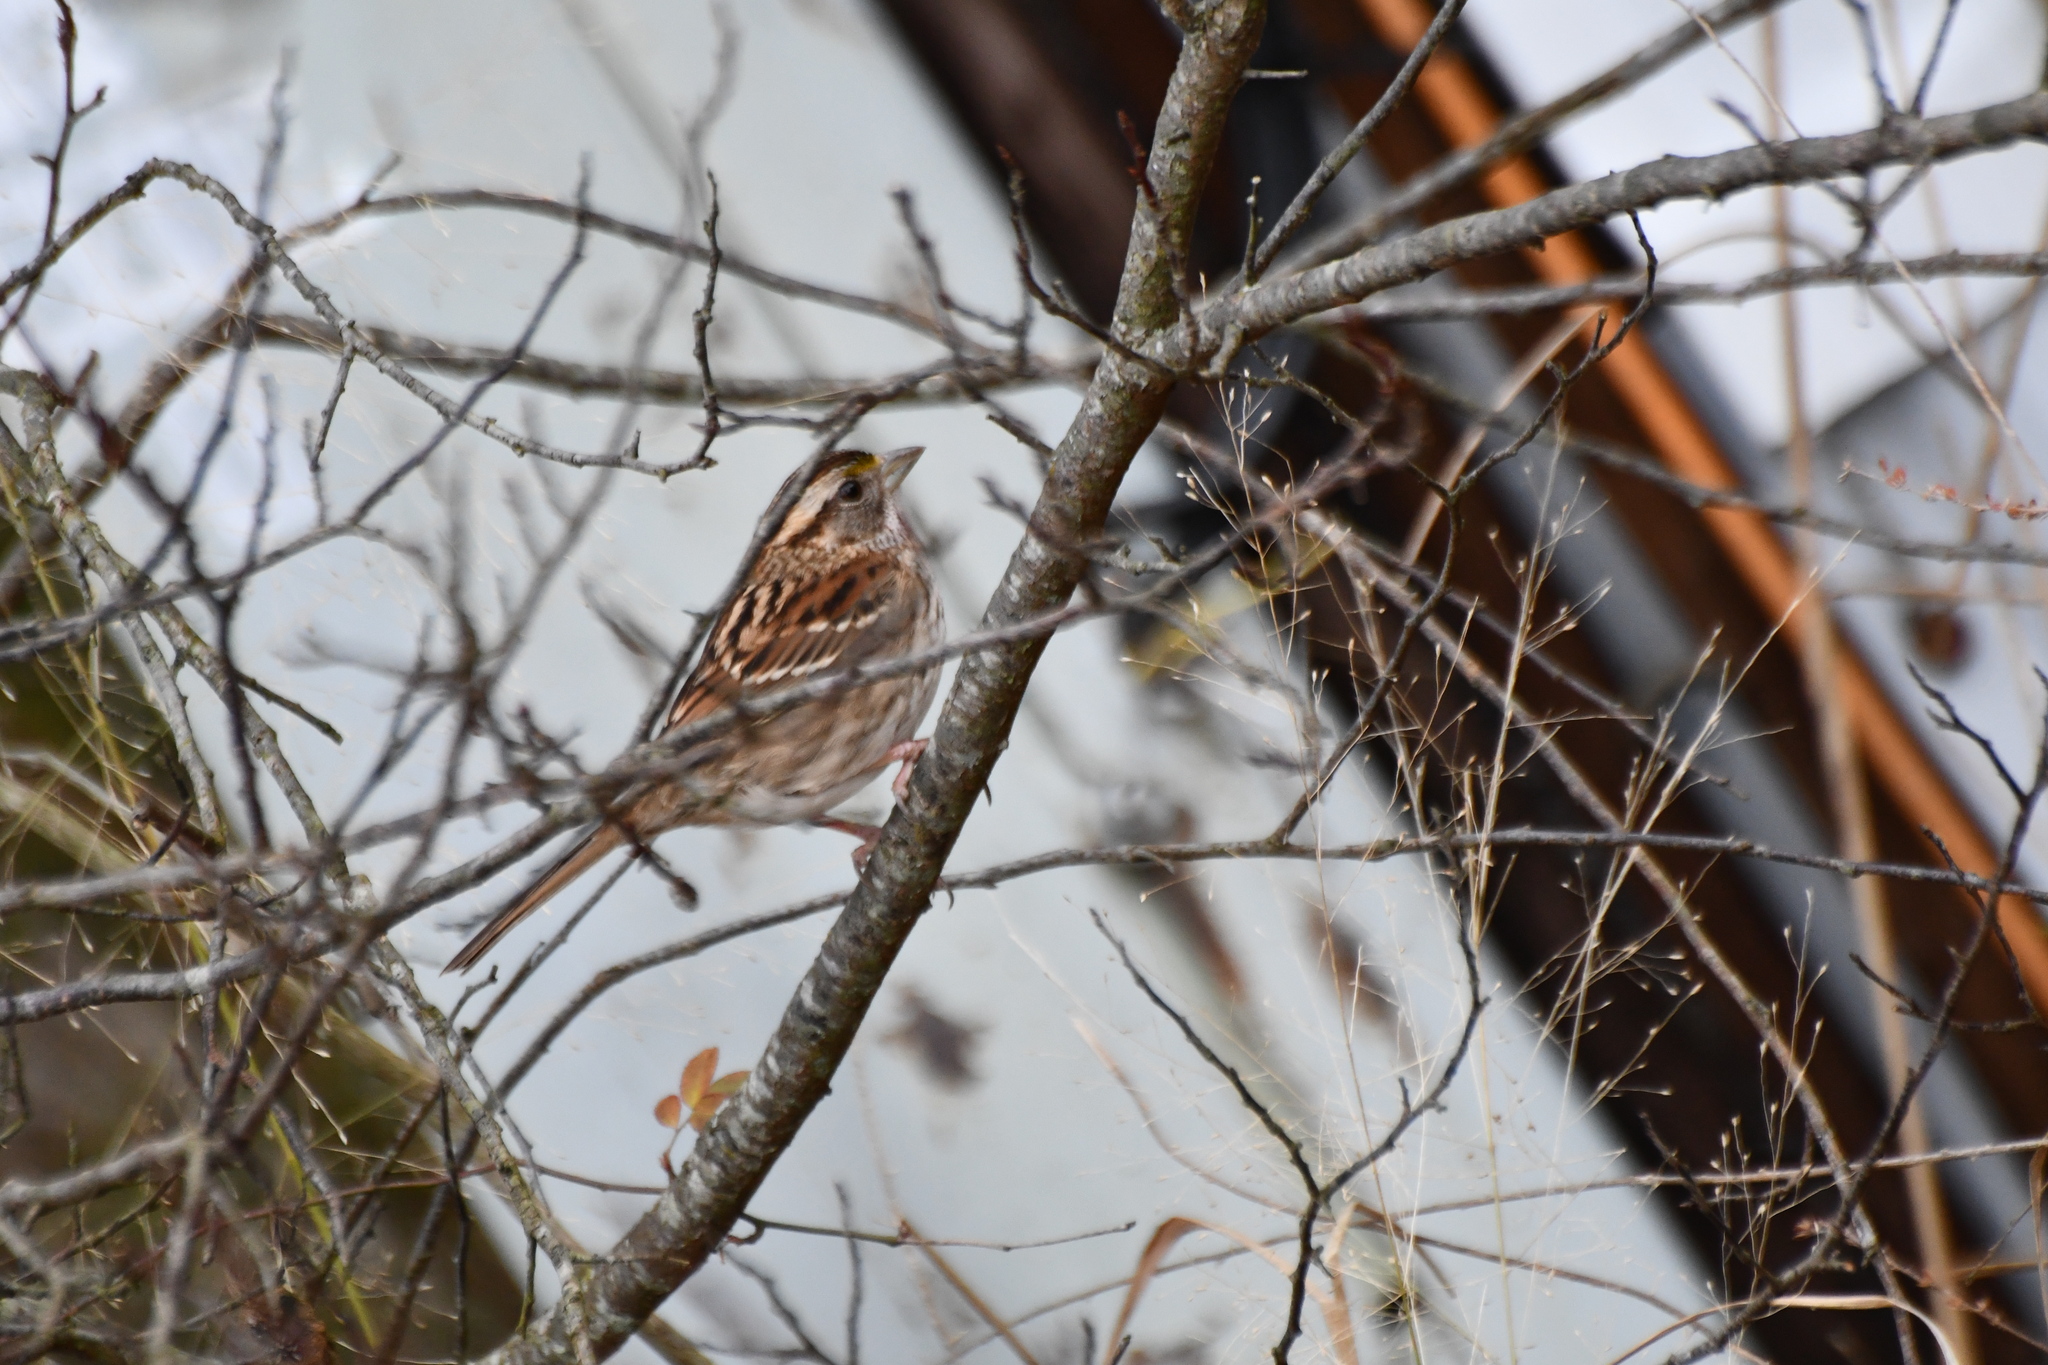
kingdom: Animalia
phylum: Chordata
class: Aves
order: Passeriformes
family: Passerellidae
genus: Zonotrichia
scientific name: Zonotrichia albicollis
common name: White-throated sparrow
